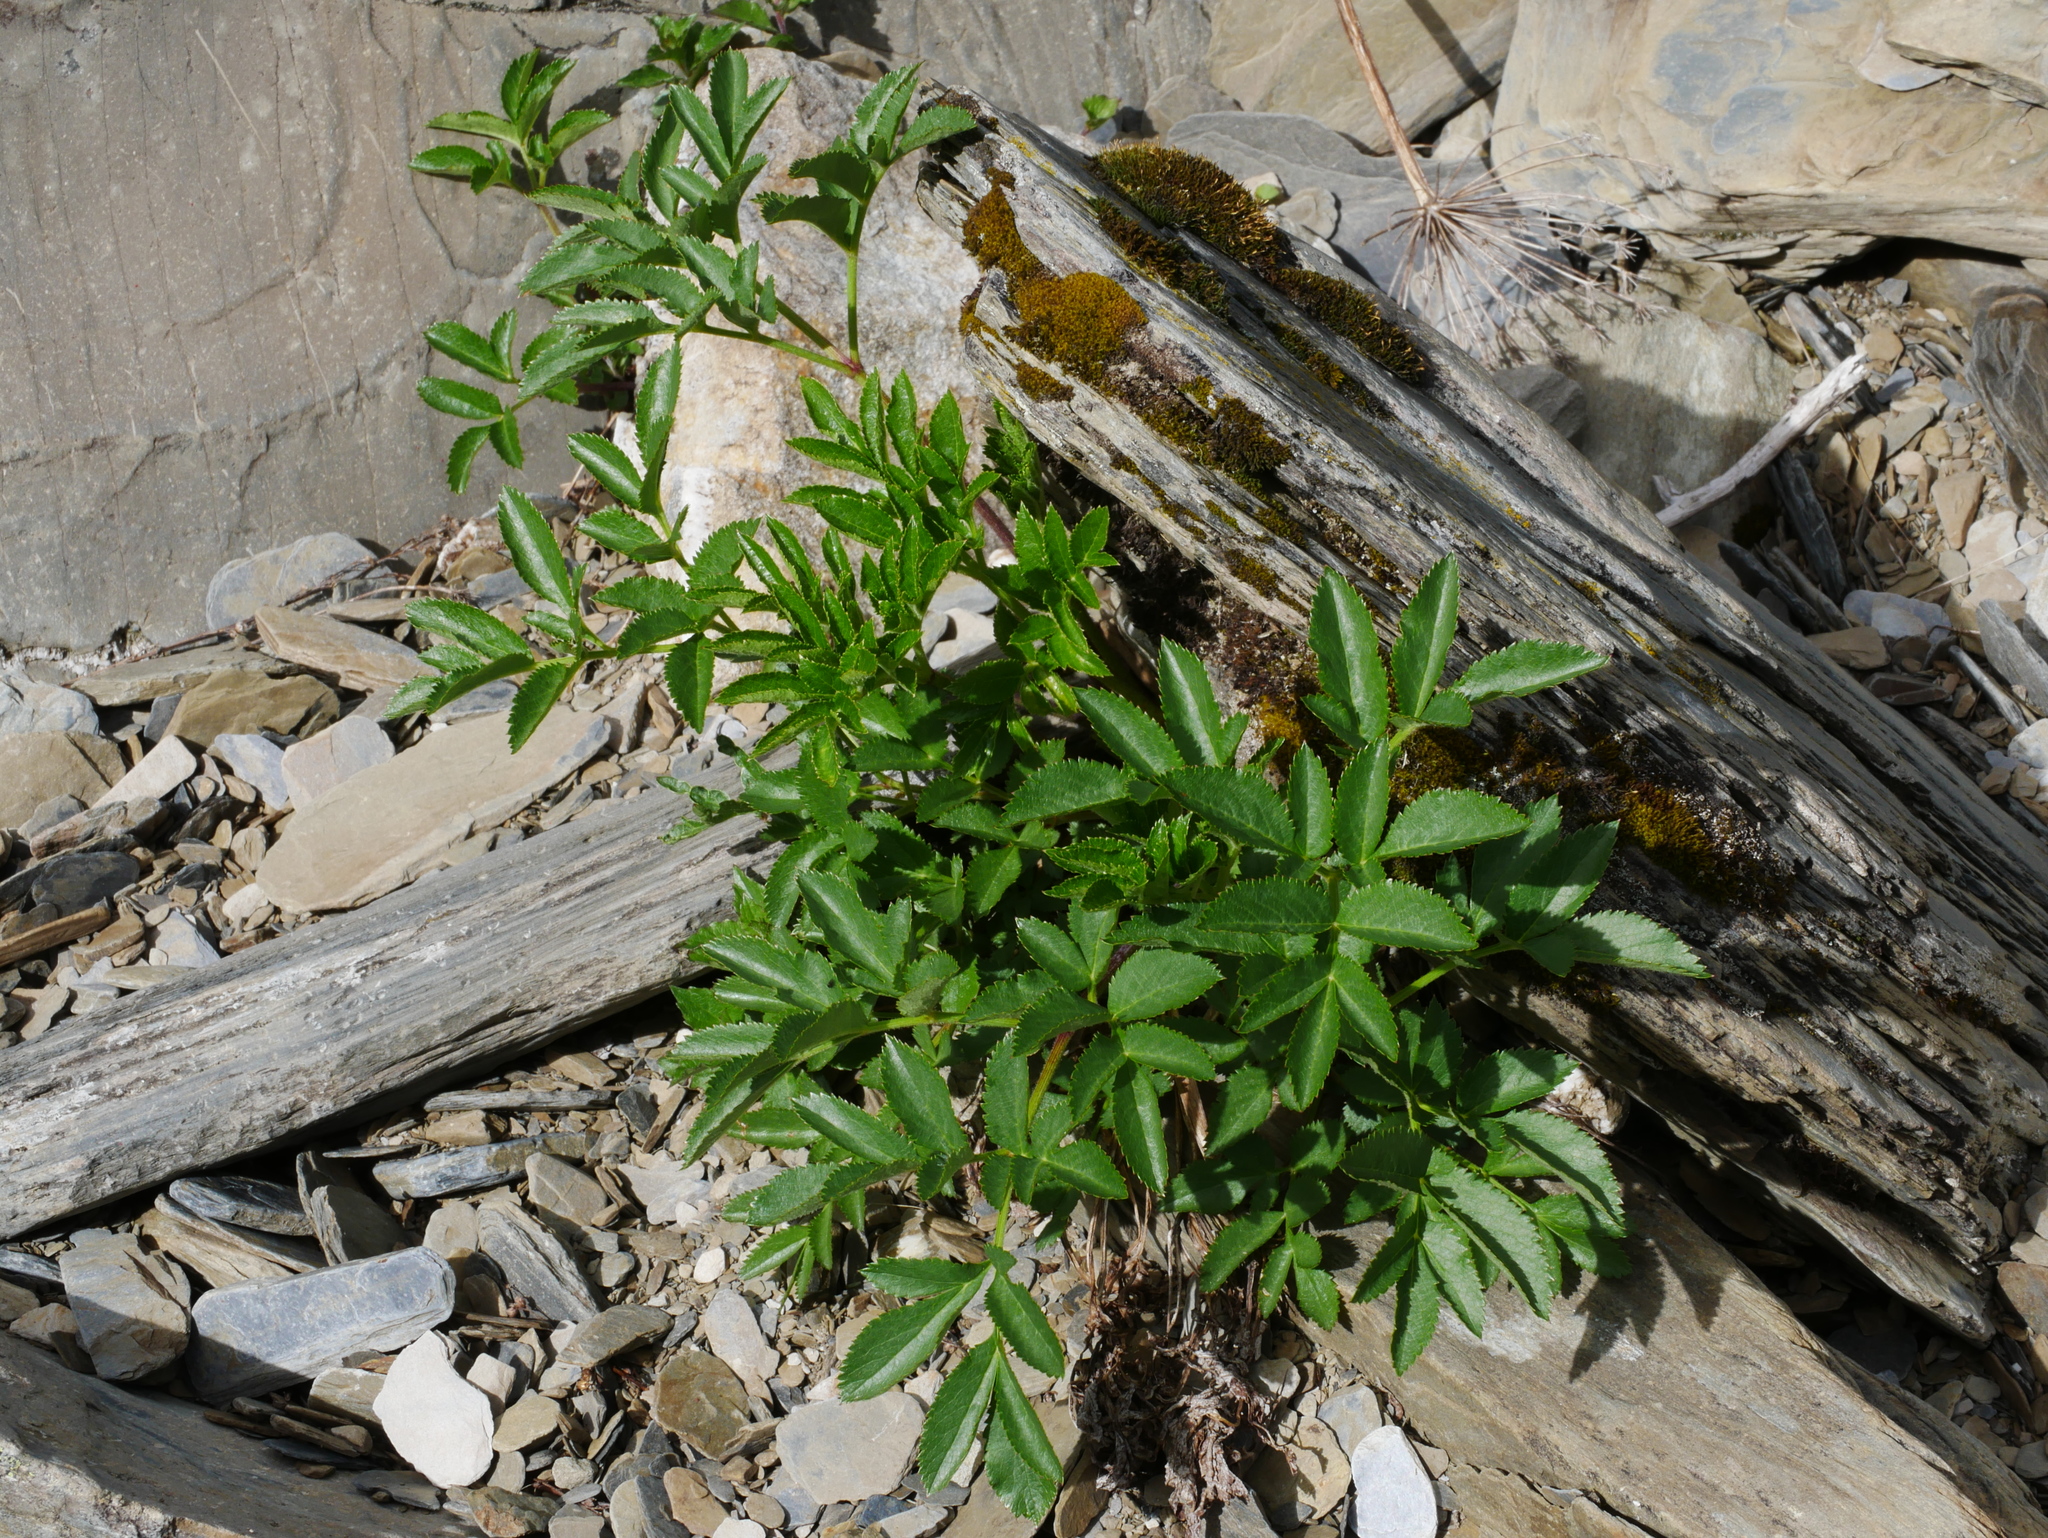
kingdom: Plantae
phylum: Tracheophyta
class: Magnoliopsida
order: Apiales
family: Apiaceae
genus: Angelica
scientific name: Angelica morrisonicola
